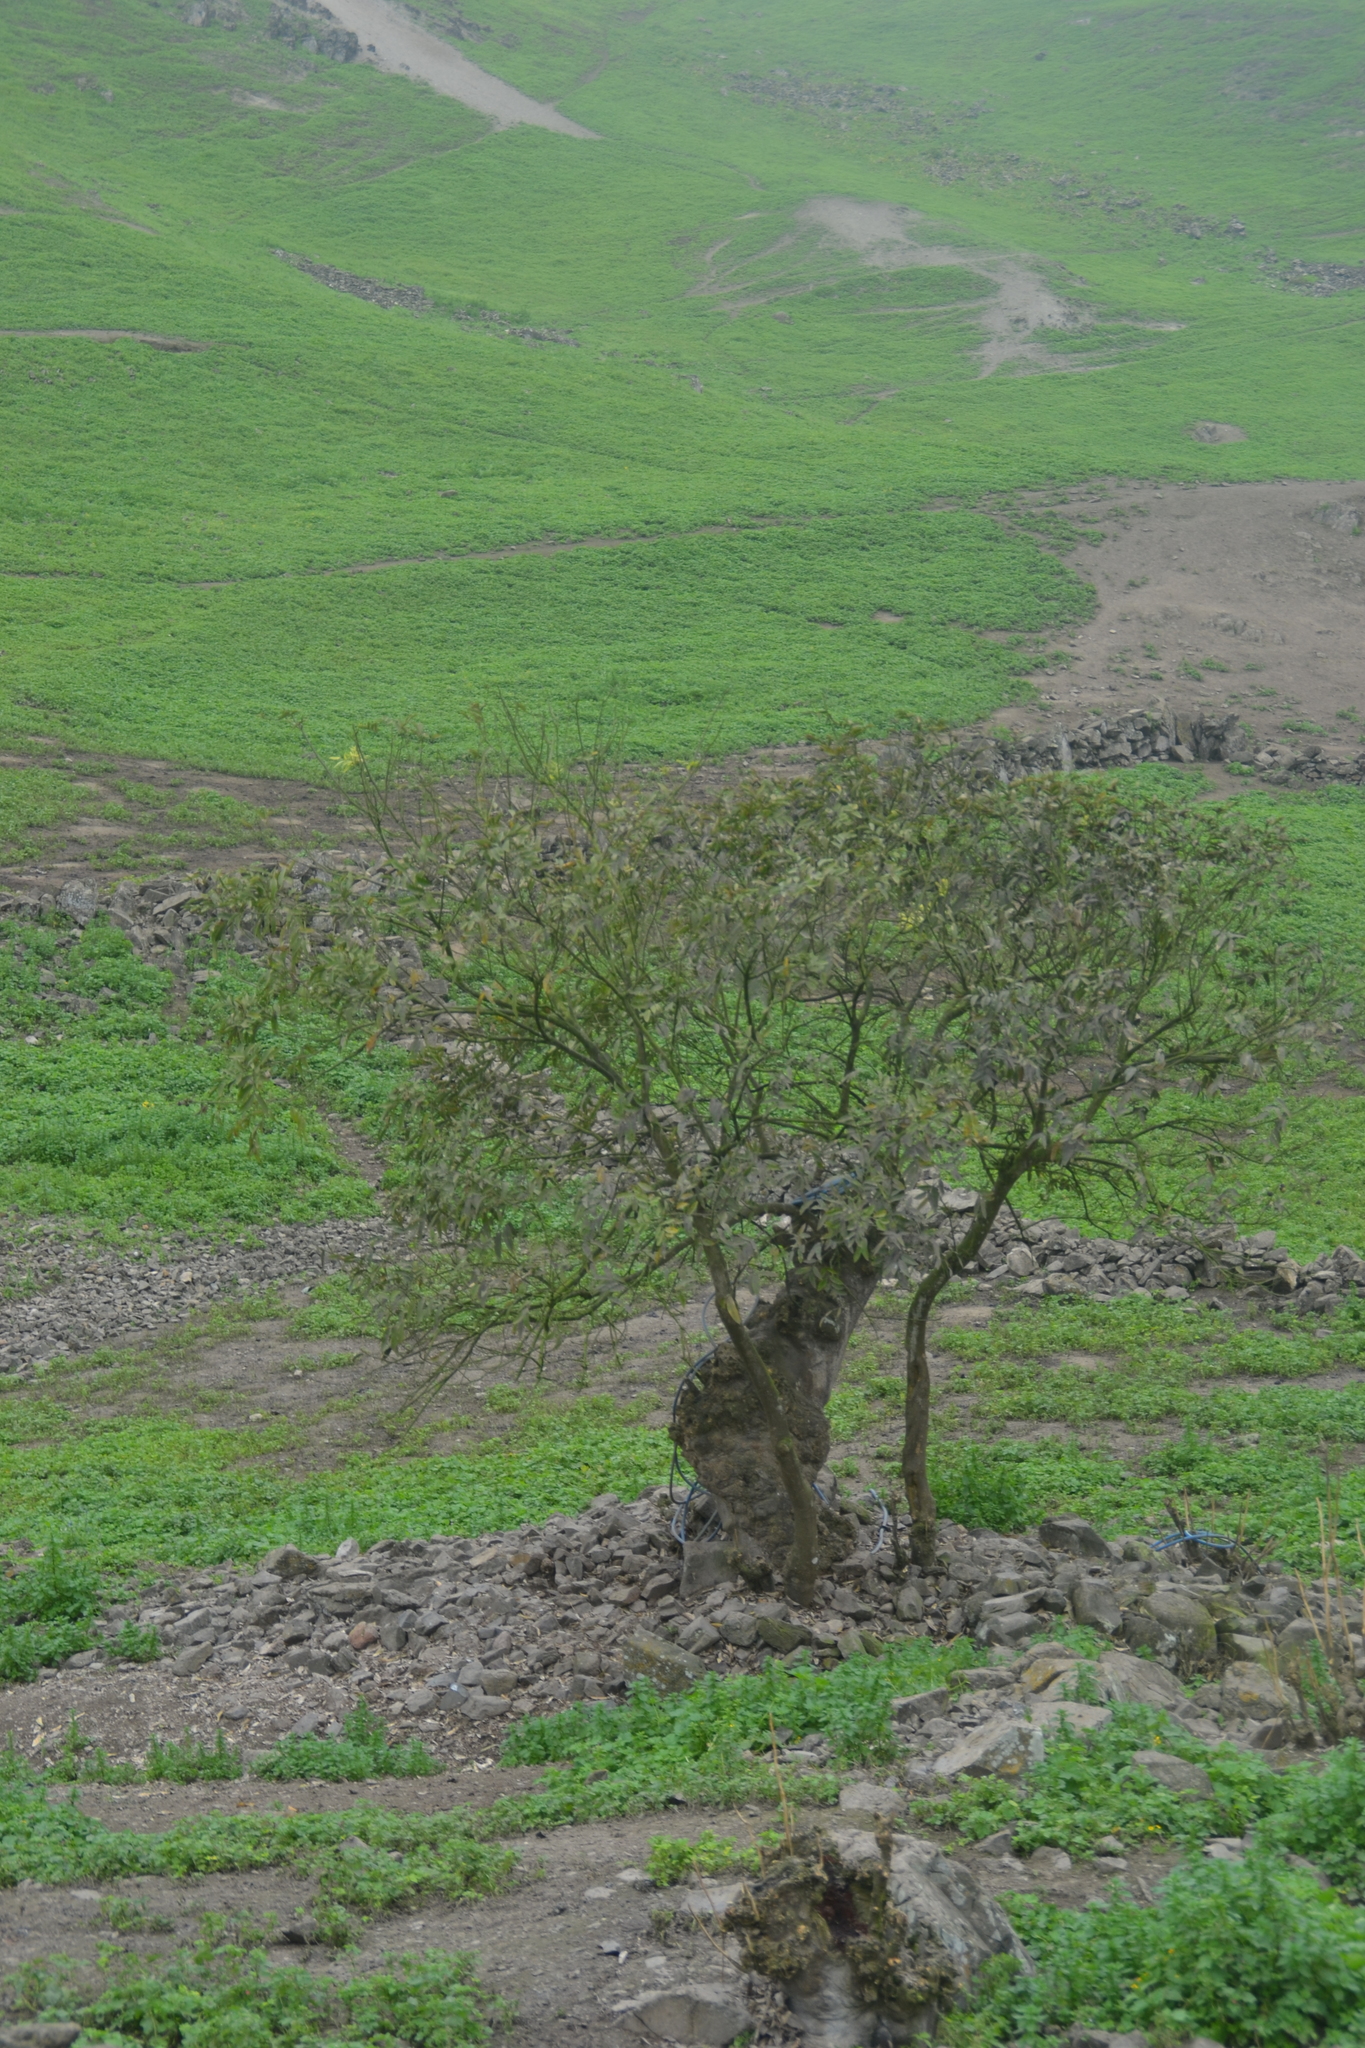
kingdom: Plantae
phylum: Tracheophyta
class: Magnoliopsida
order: Sapindales
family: Sapindaceae
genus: Sapindus
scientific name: Sapindus saponaria
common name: Wingleaf soapberry
